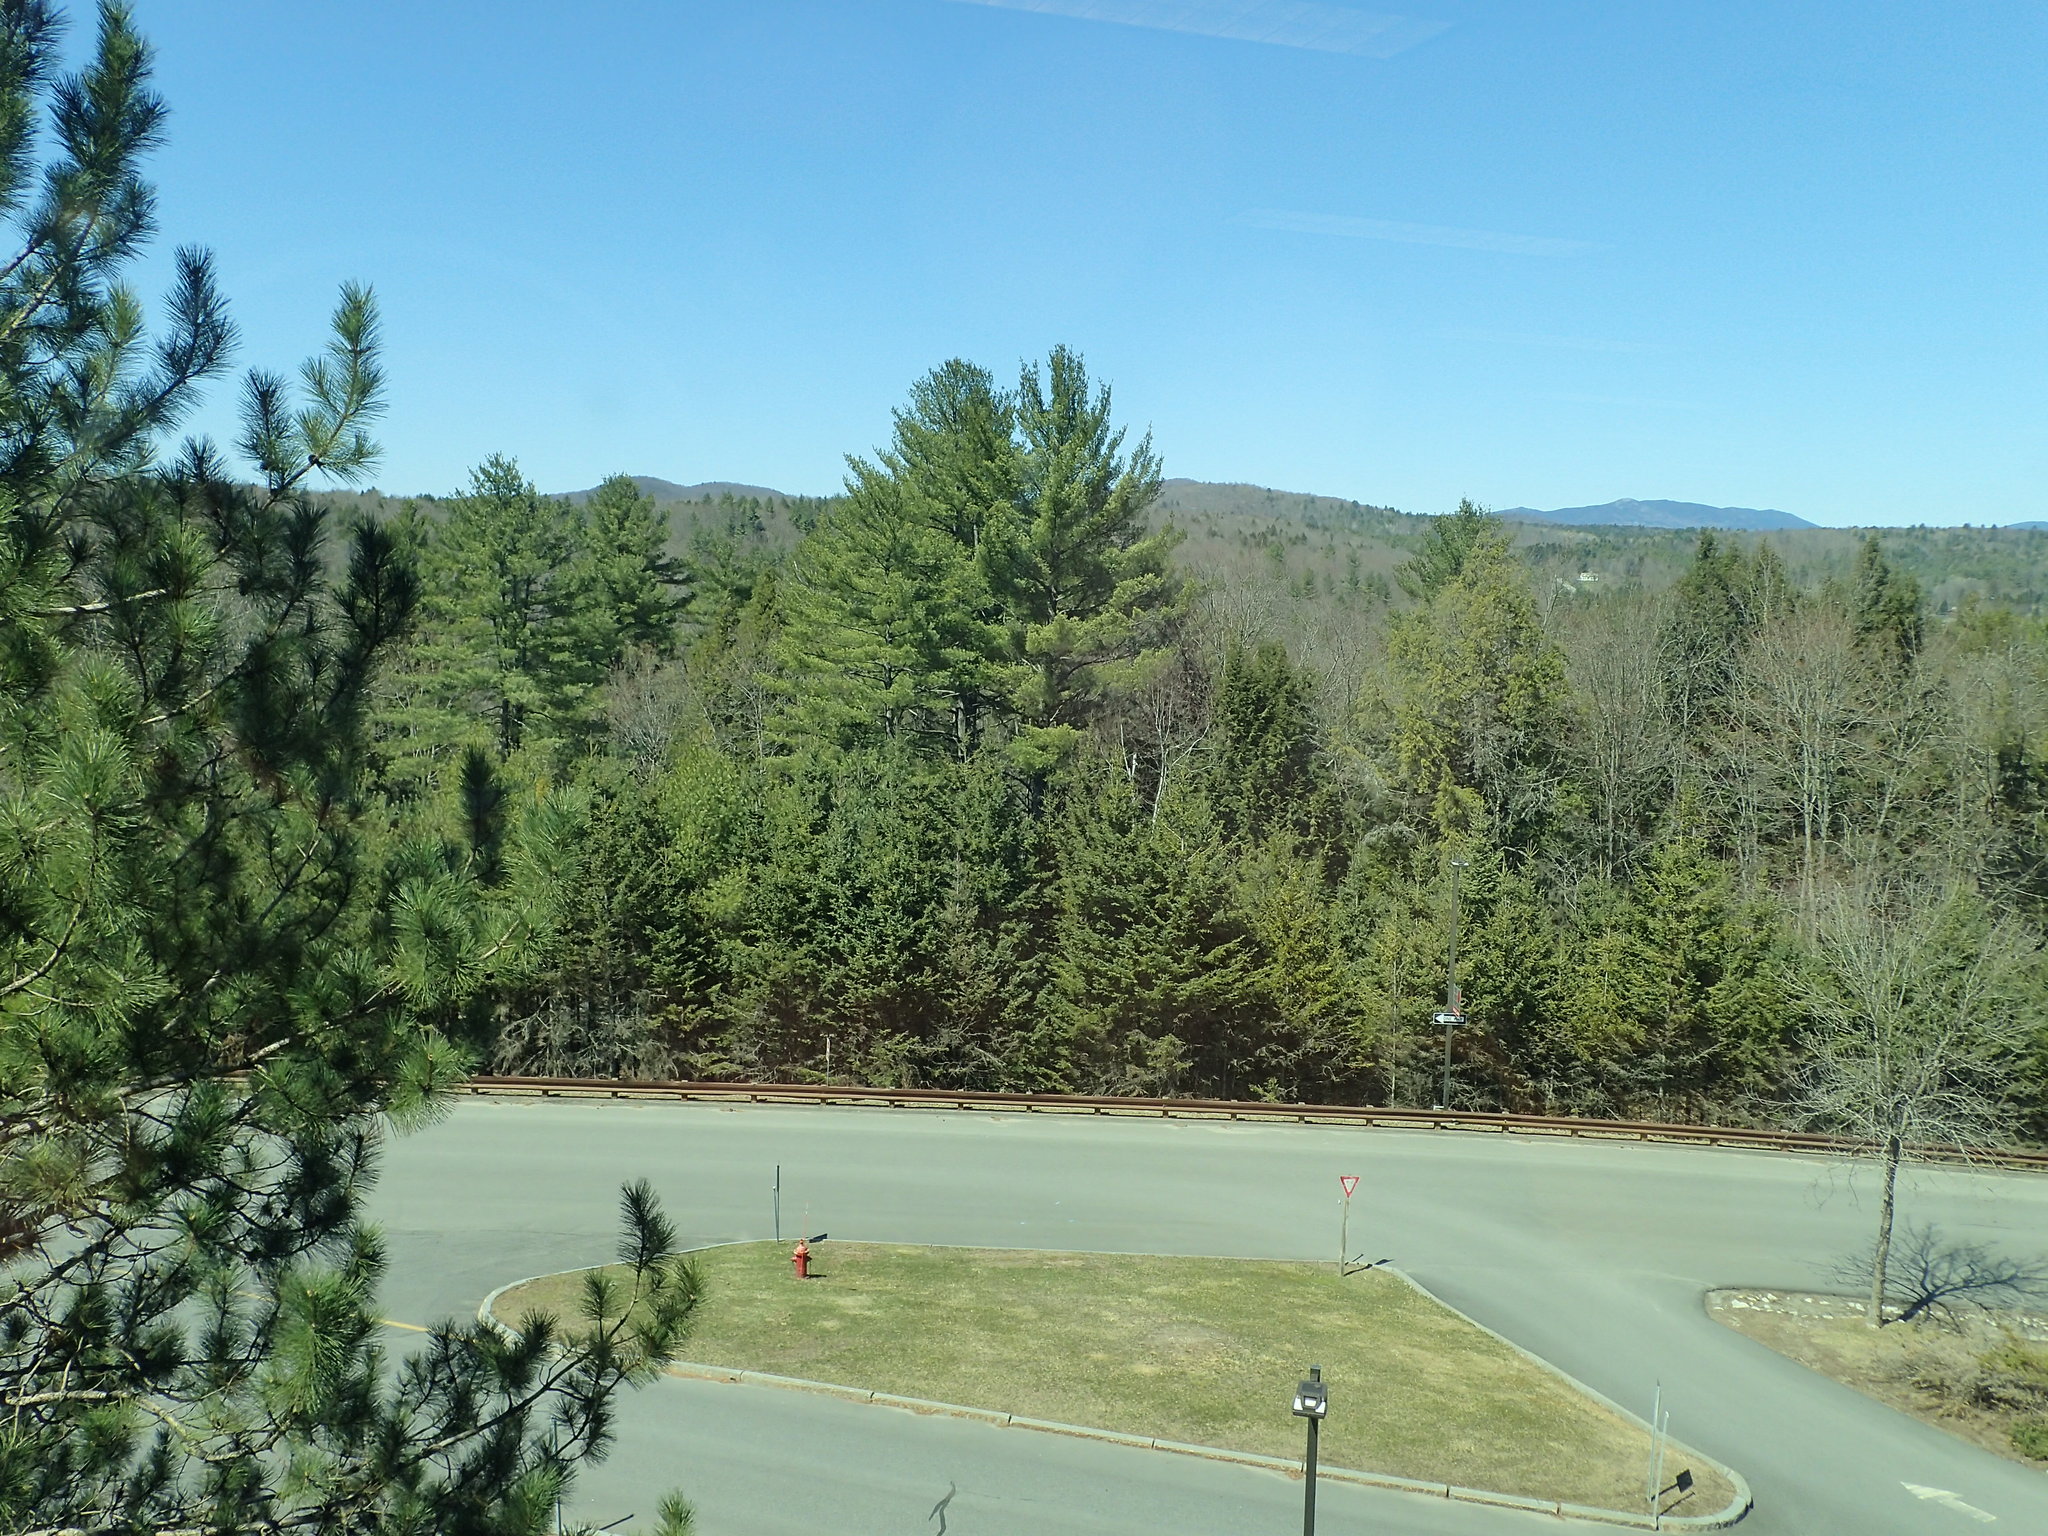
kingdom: Plantae
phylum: Tracheophyta
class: Pinopsida
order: Pinales
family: Pinaceae
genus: Pinus
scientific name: Pinus strobus
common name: Weymouth pine
